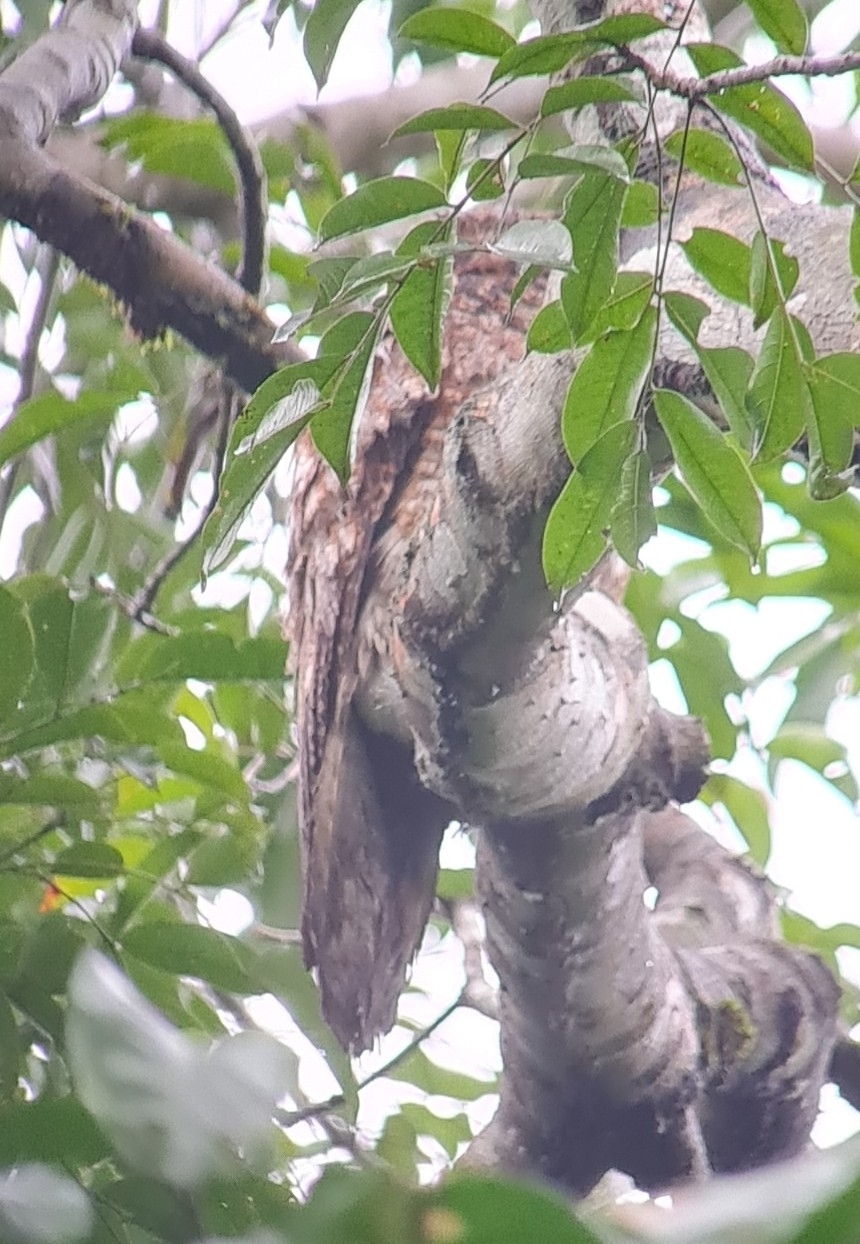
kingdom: Animalia
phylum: Chordata
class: Aves
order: Nyctibiiformes
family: Nyctibiidae
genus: Nyctibius
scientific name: Nyctibius grandis
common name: Great potoo
